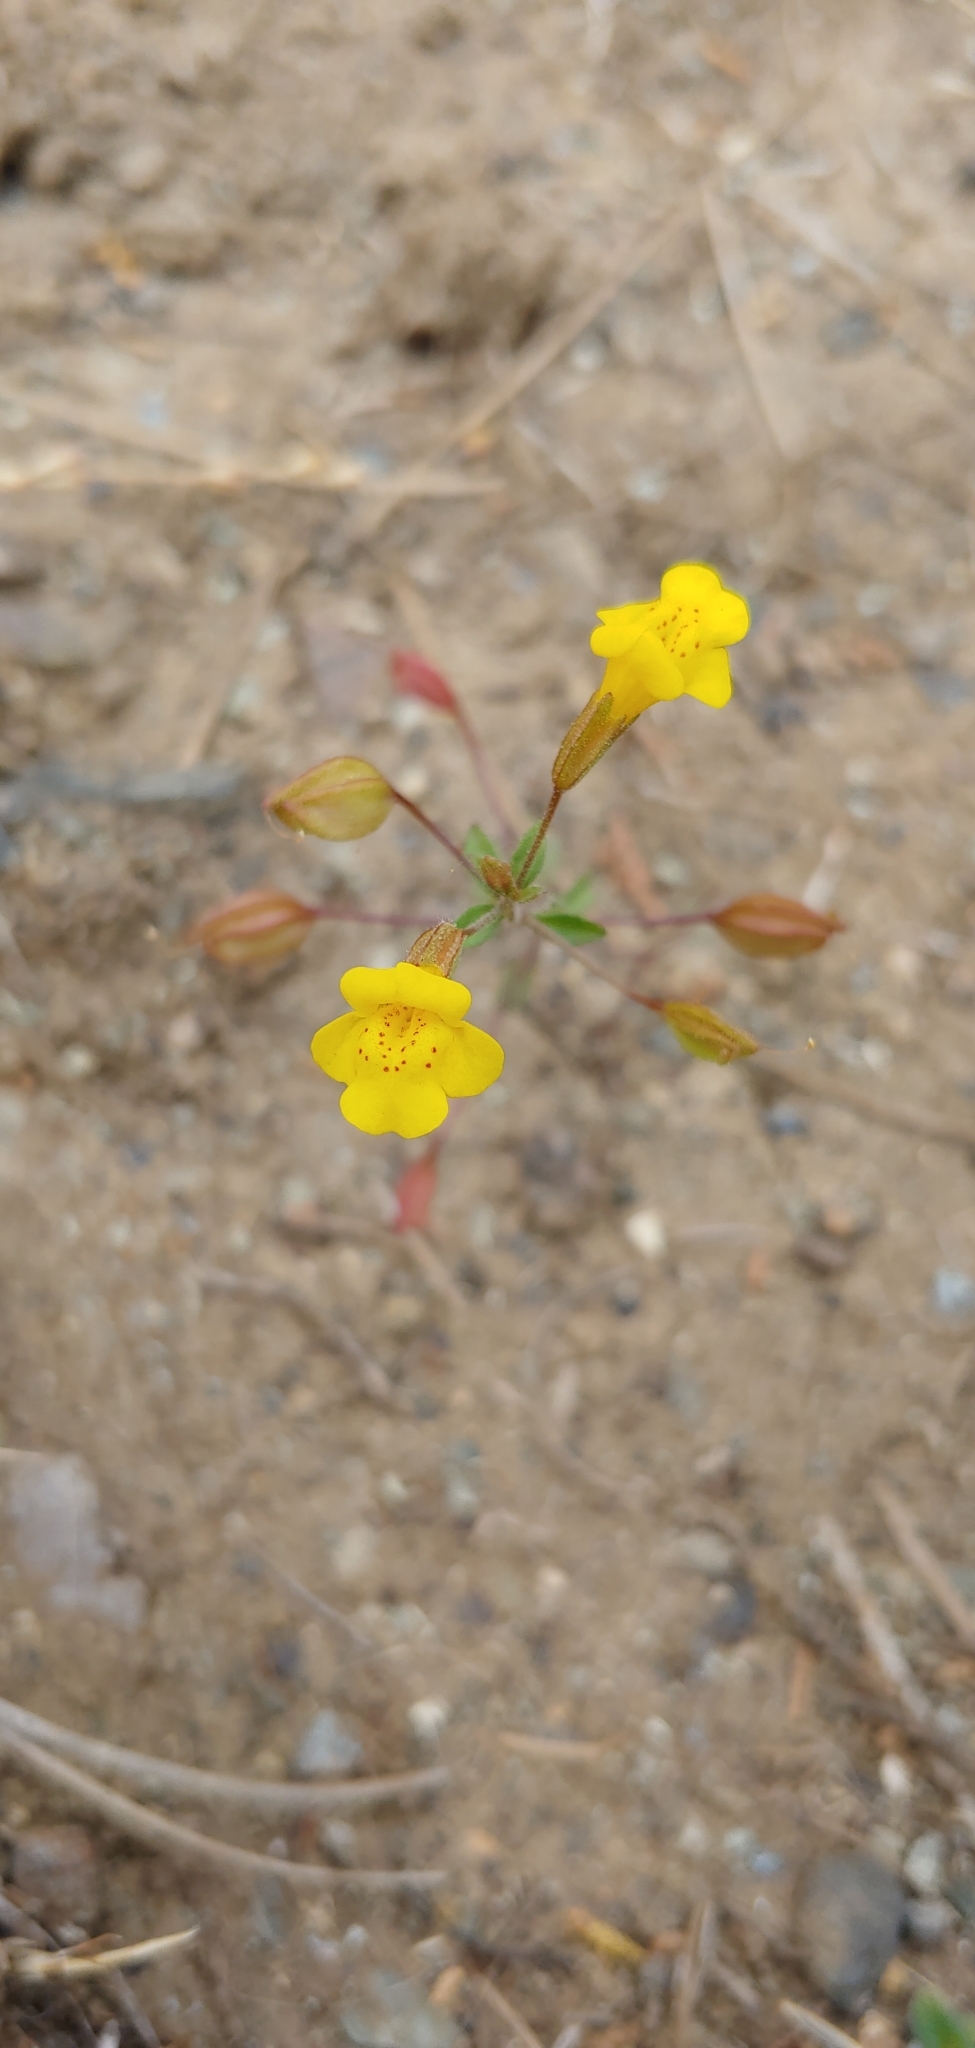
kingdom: Plantae
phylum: Tracheophyta
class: Magnoliopsida
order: Lamiales
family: Phrymaceae
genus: Erythranthe
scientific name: Erythranthe nudata
